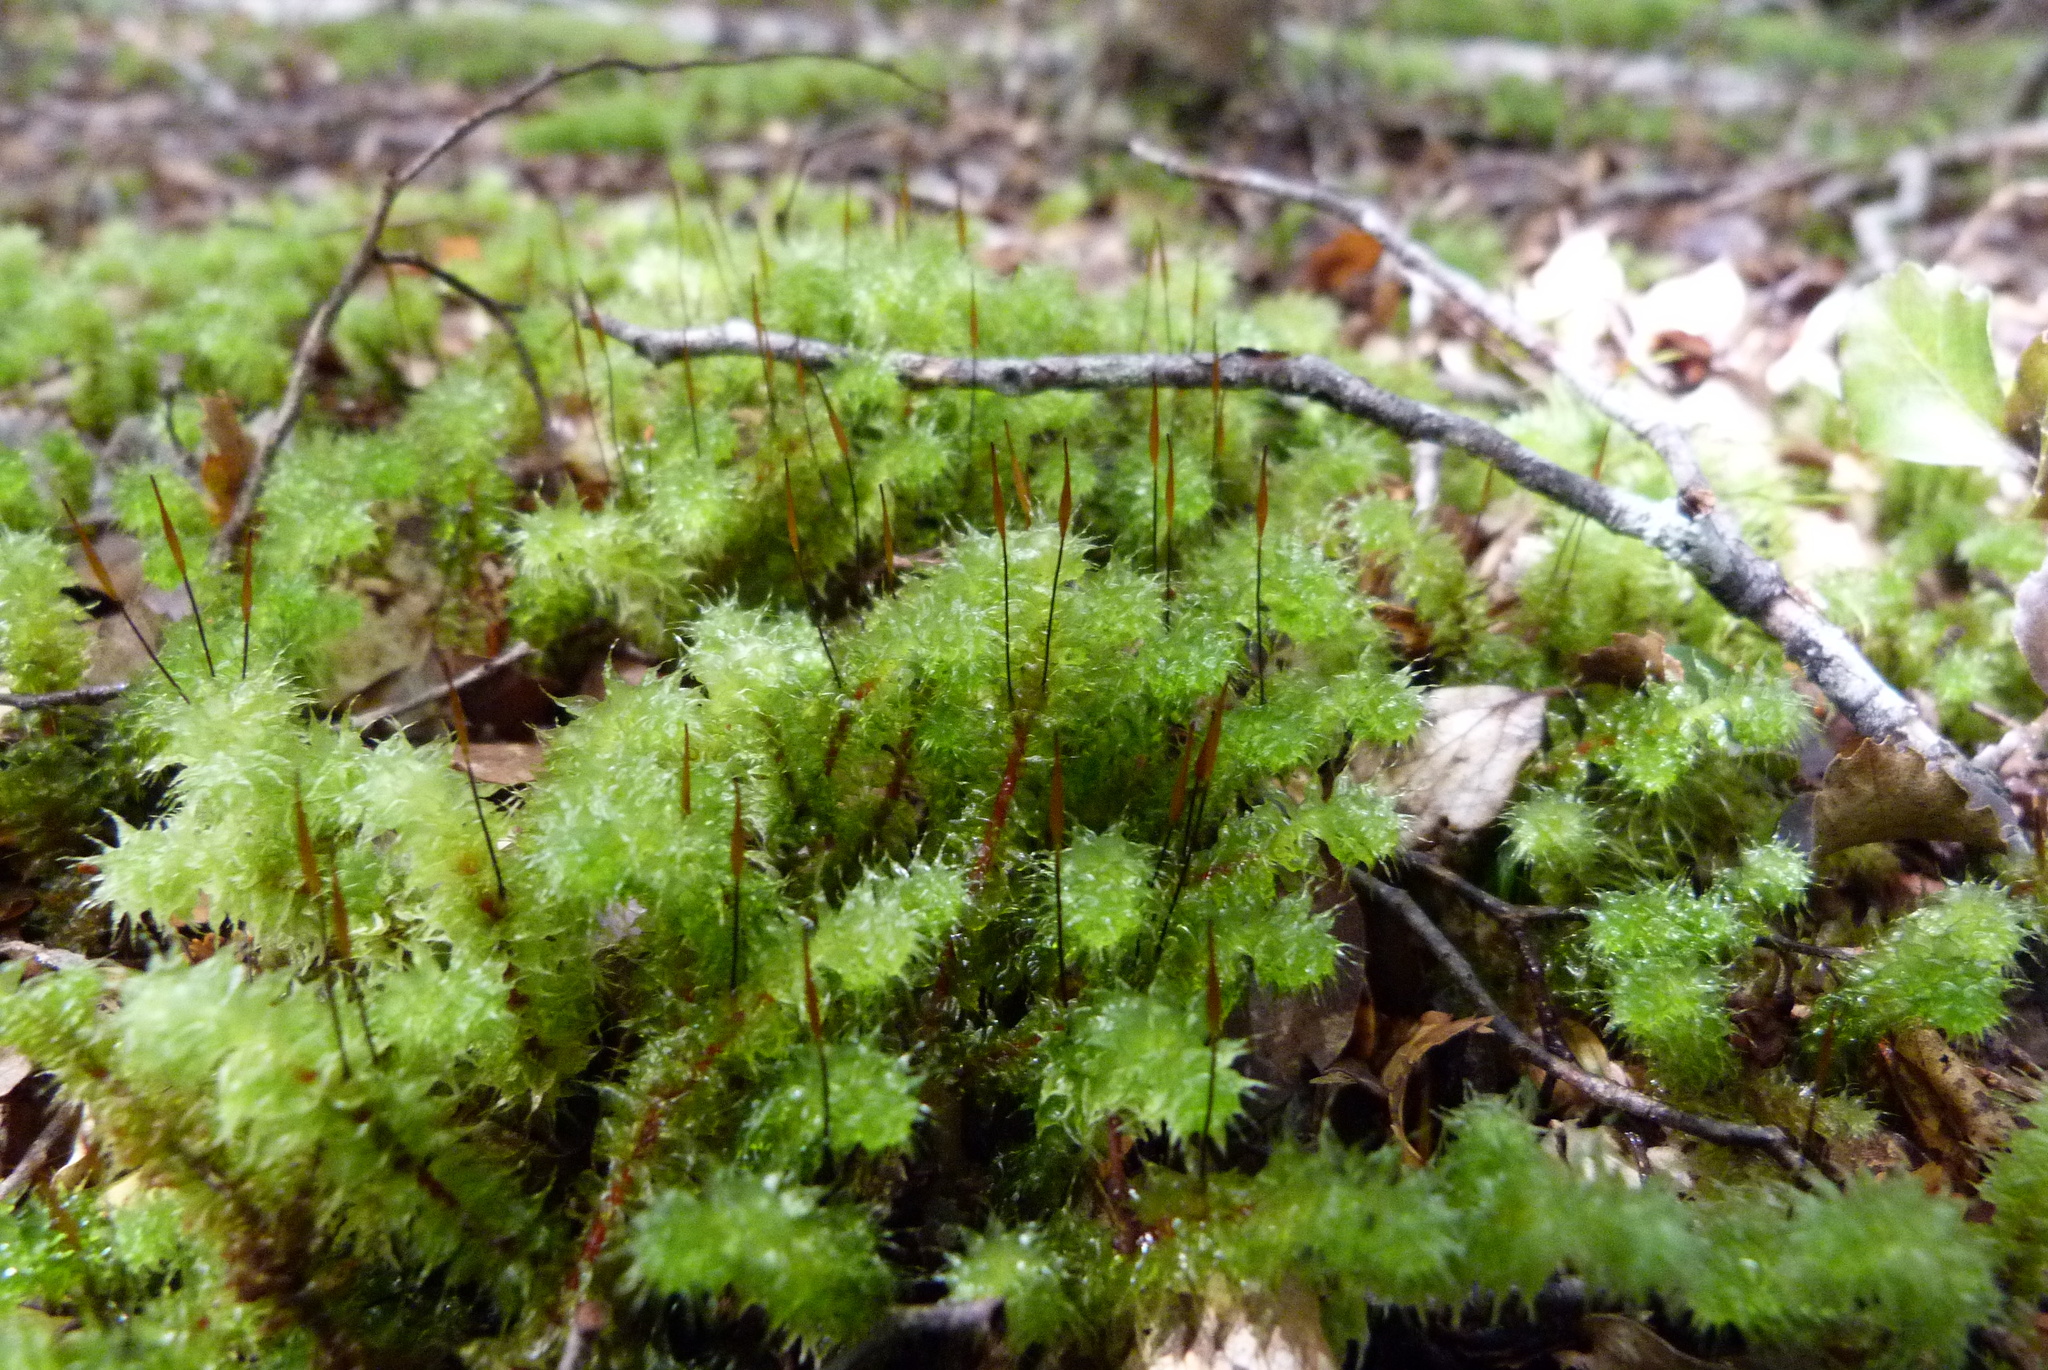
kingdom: Plantae
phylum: Bryophyta
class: Bryopsida
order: Ptychomniales
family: Ptychomniaceae
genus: Ptychomnion
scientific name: Ptychomnion aciculare
